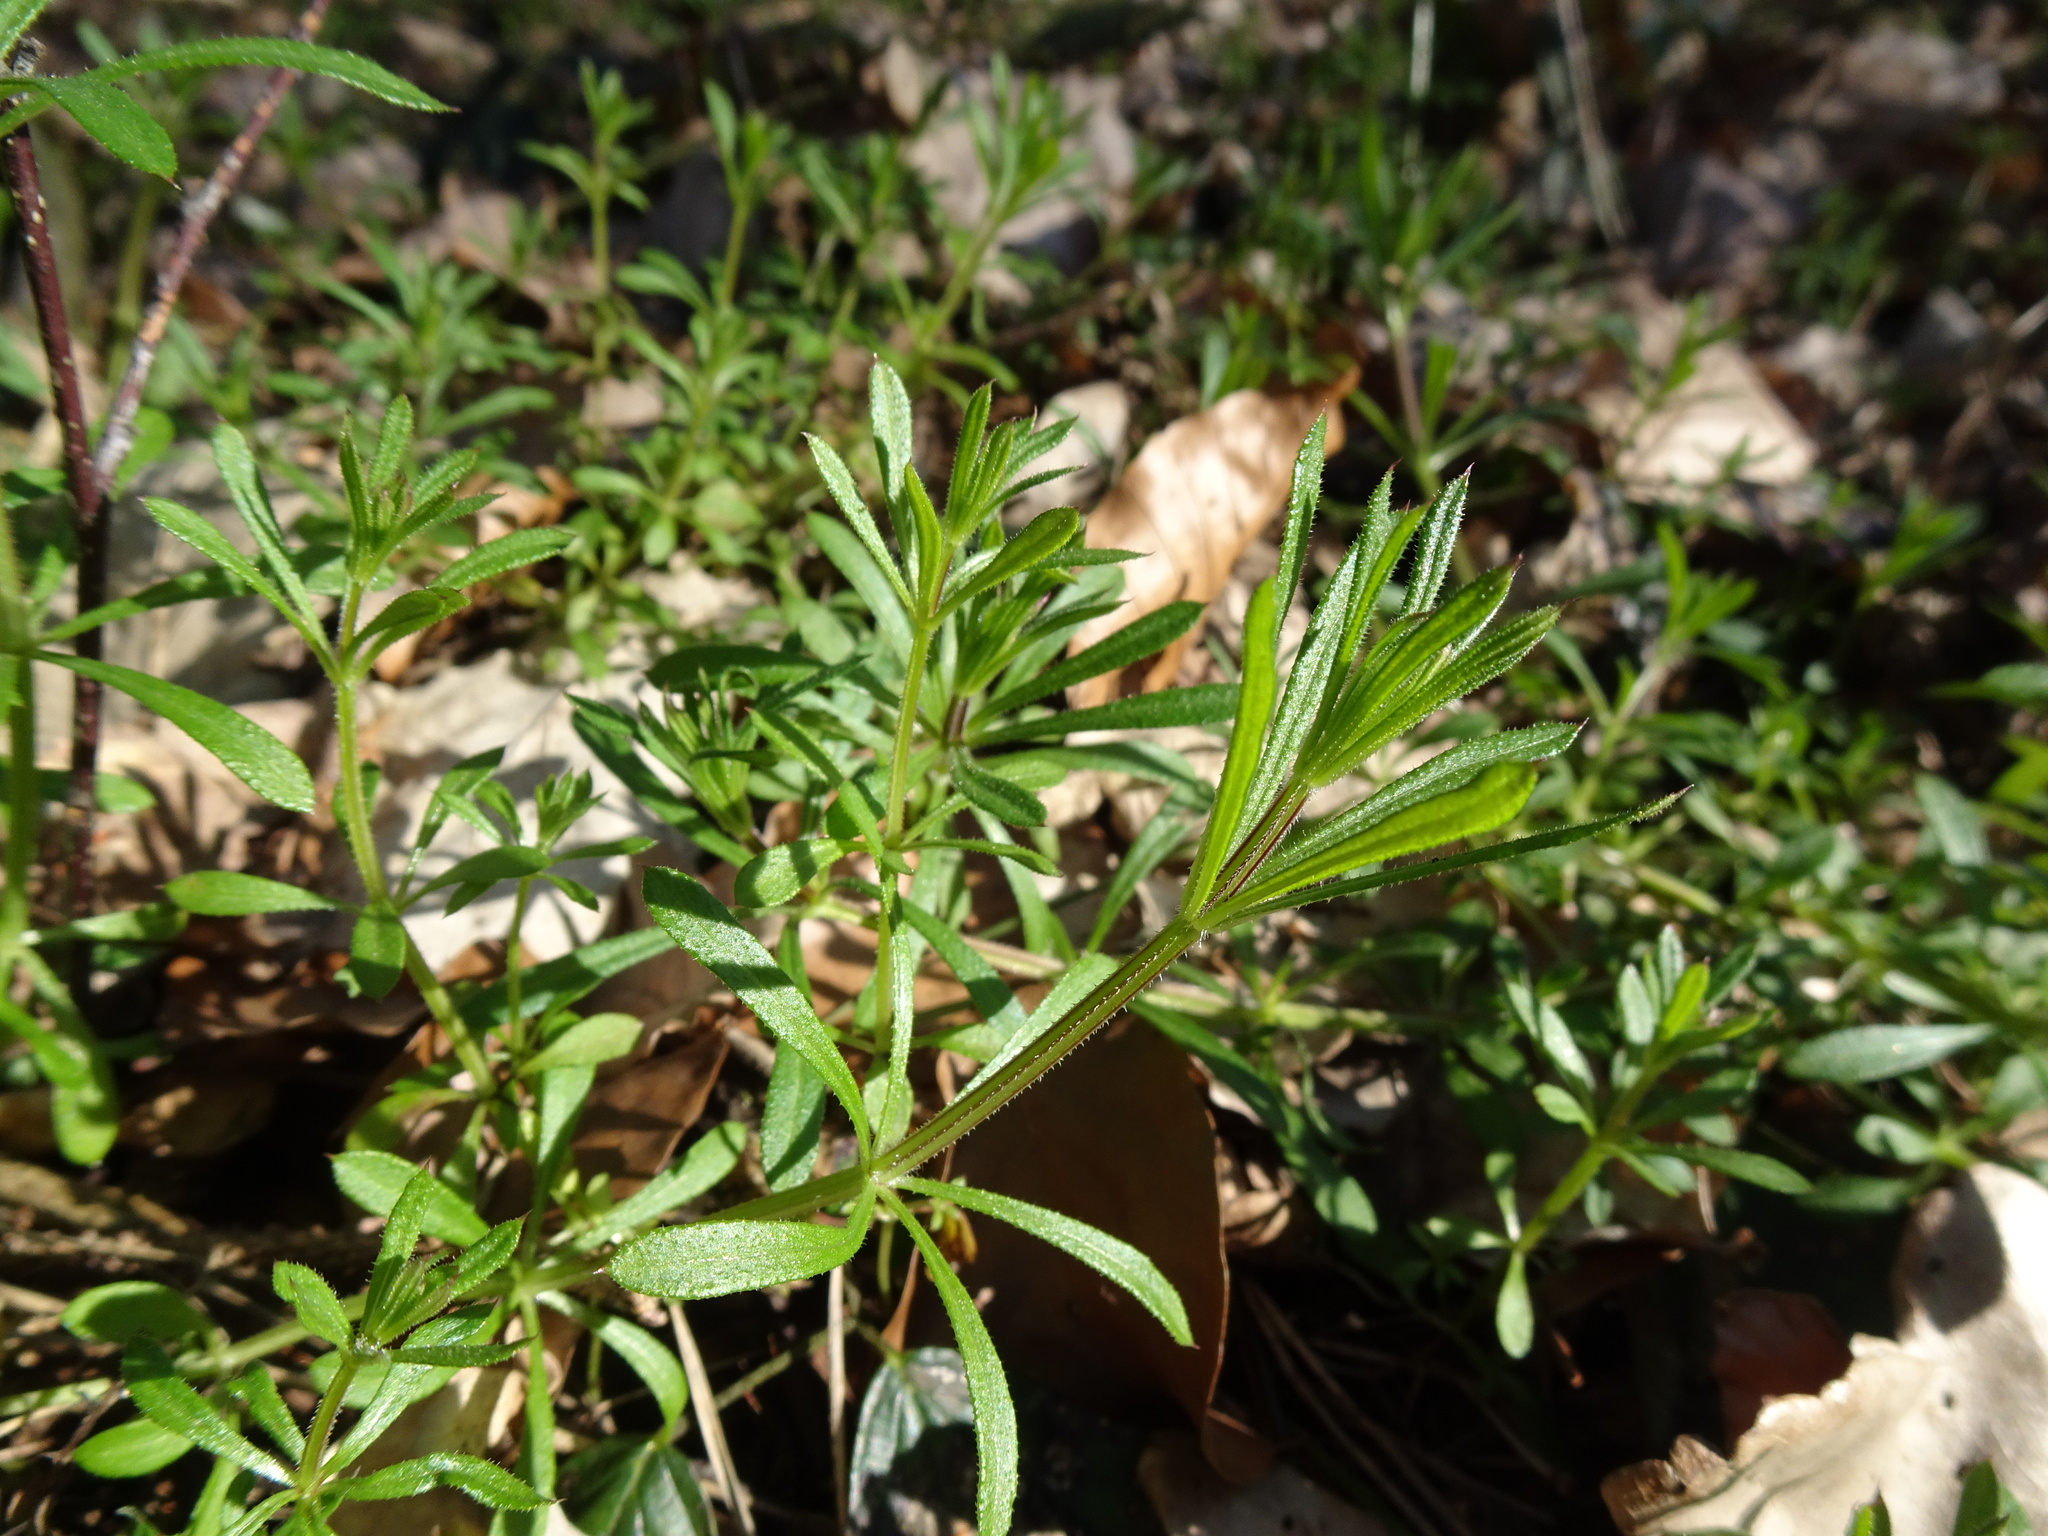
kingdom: Plantae
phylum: Tracheophyta
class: Magnoliopsida
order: Gentianales
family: Rubiaceae
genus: Galium
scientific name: Galium aparine
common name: Cleavers
